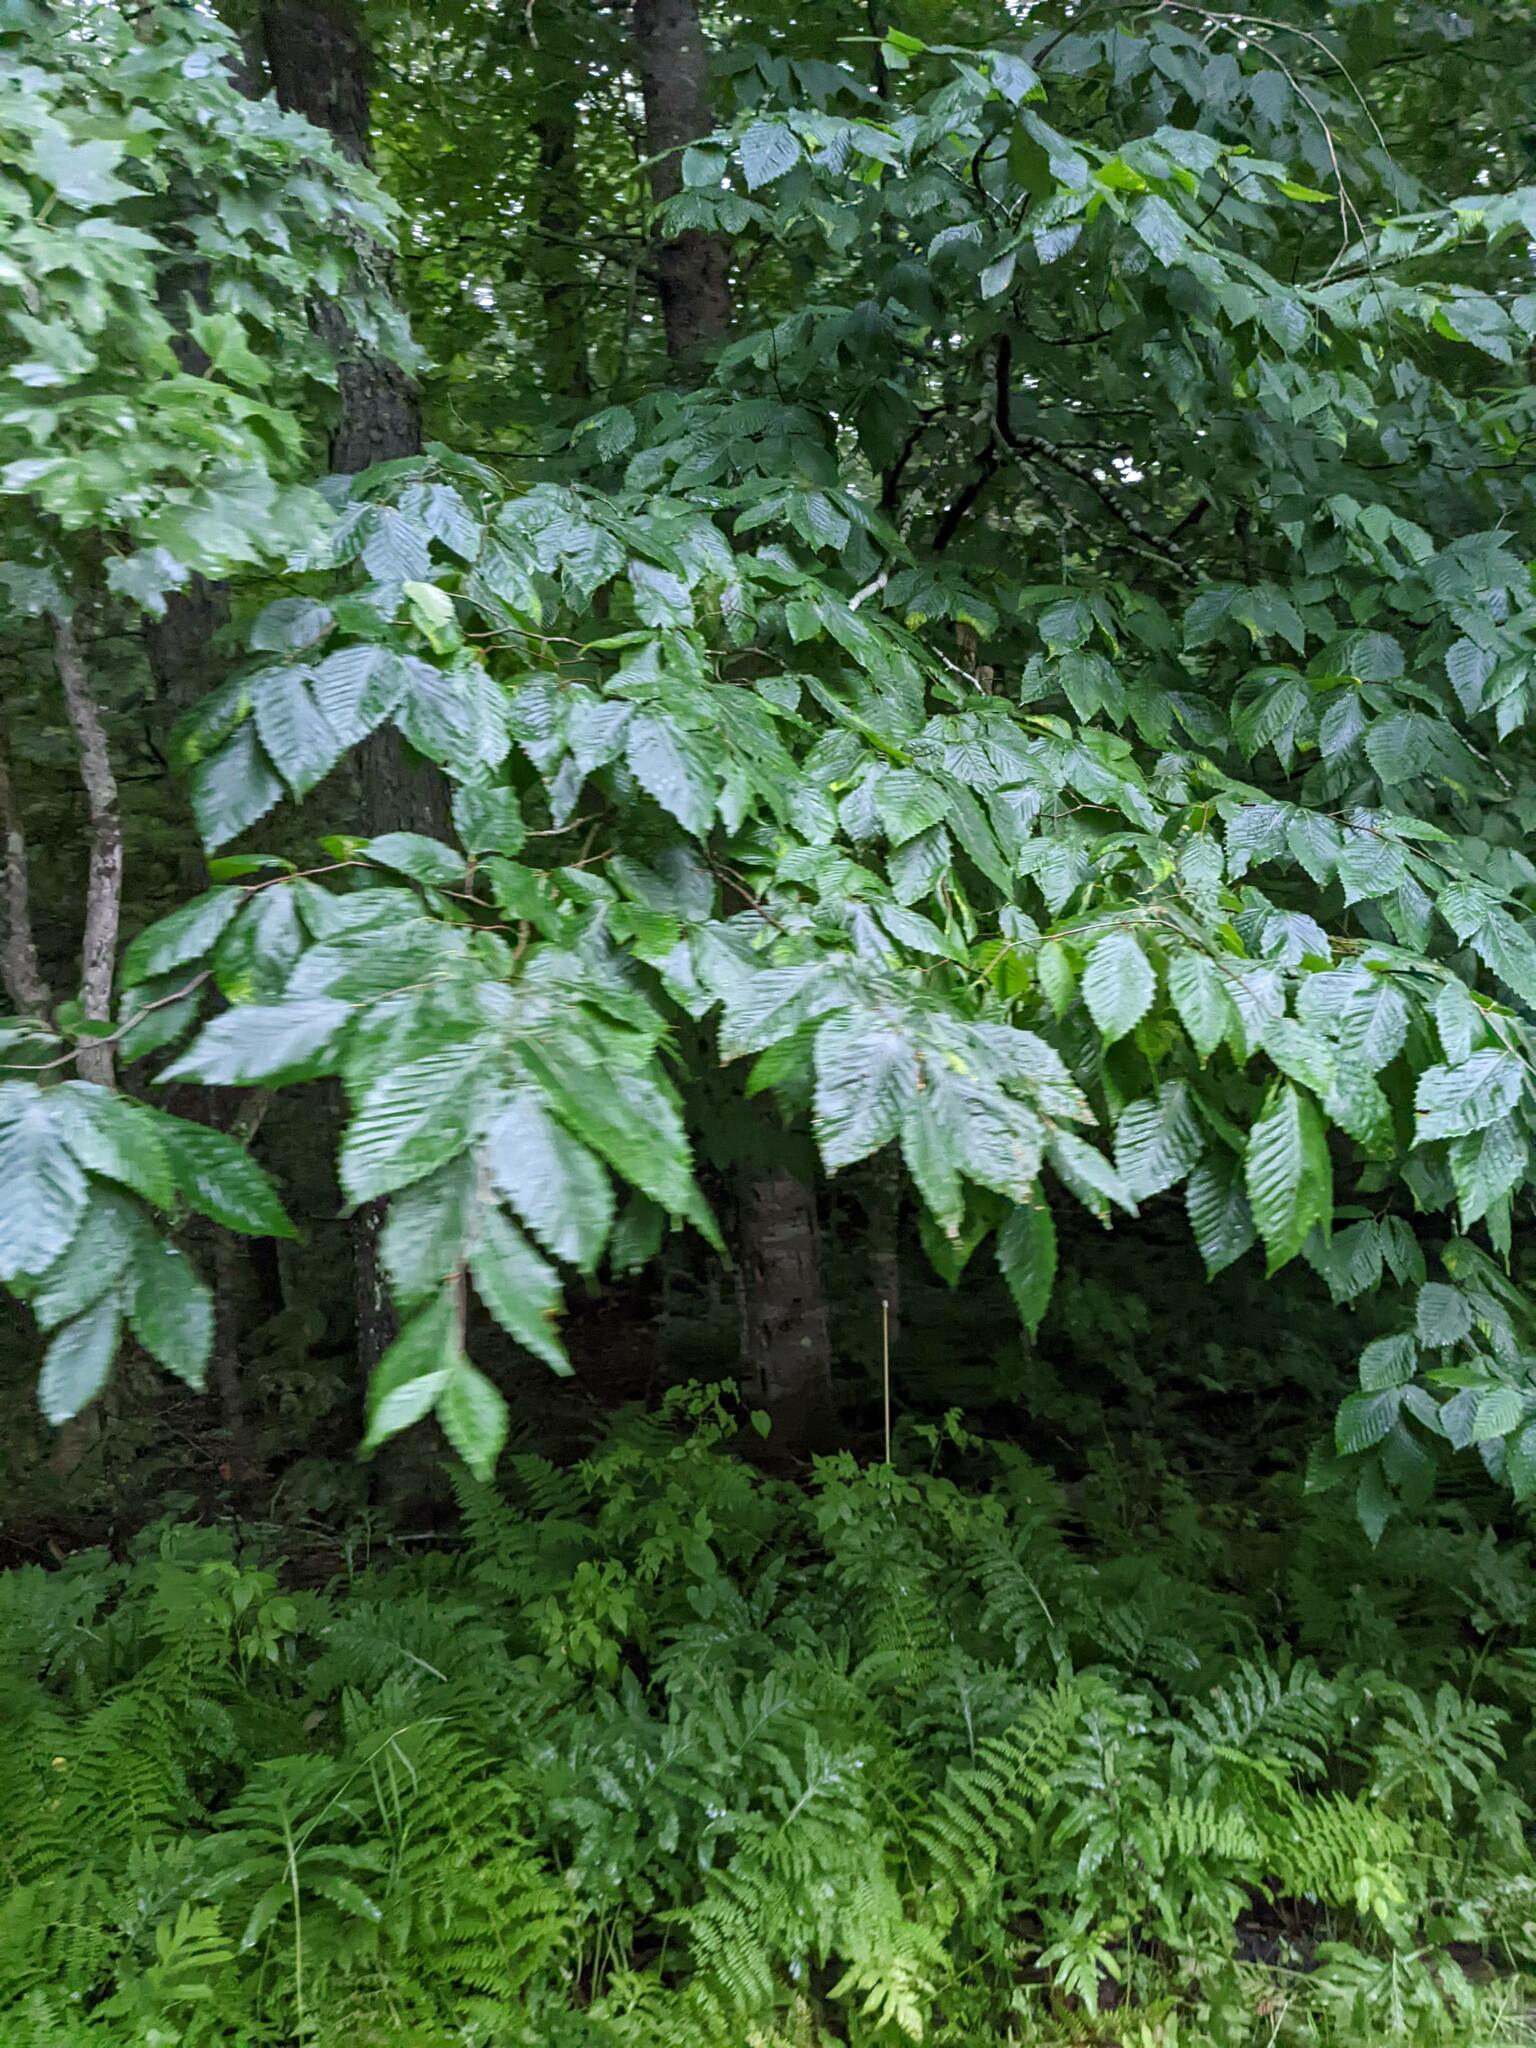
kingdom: Plantae
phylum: Tracheophyta
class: Magnoliopsida
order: Fagales
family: Fagaceae
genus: Fagus
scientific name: Fagus grandifolia
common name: American beech
